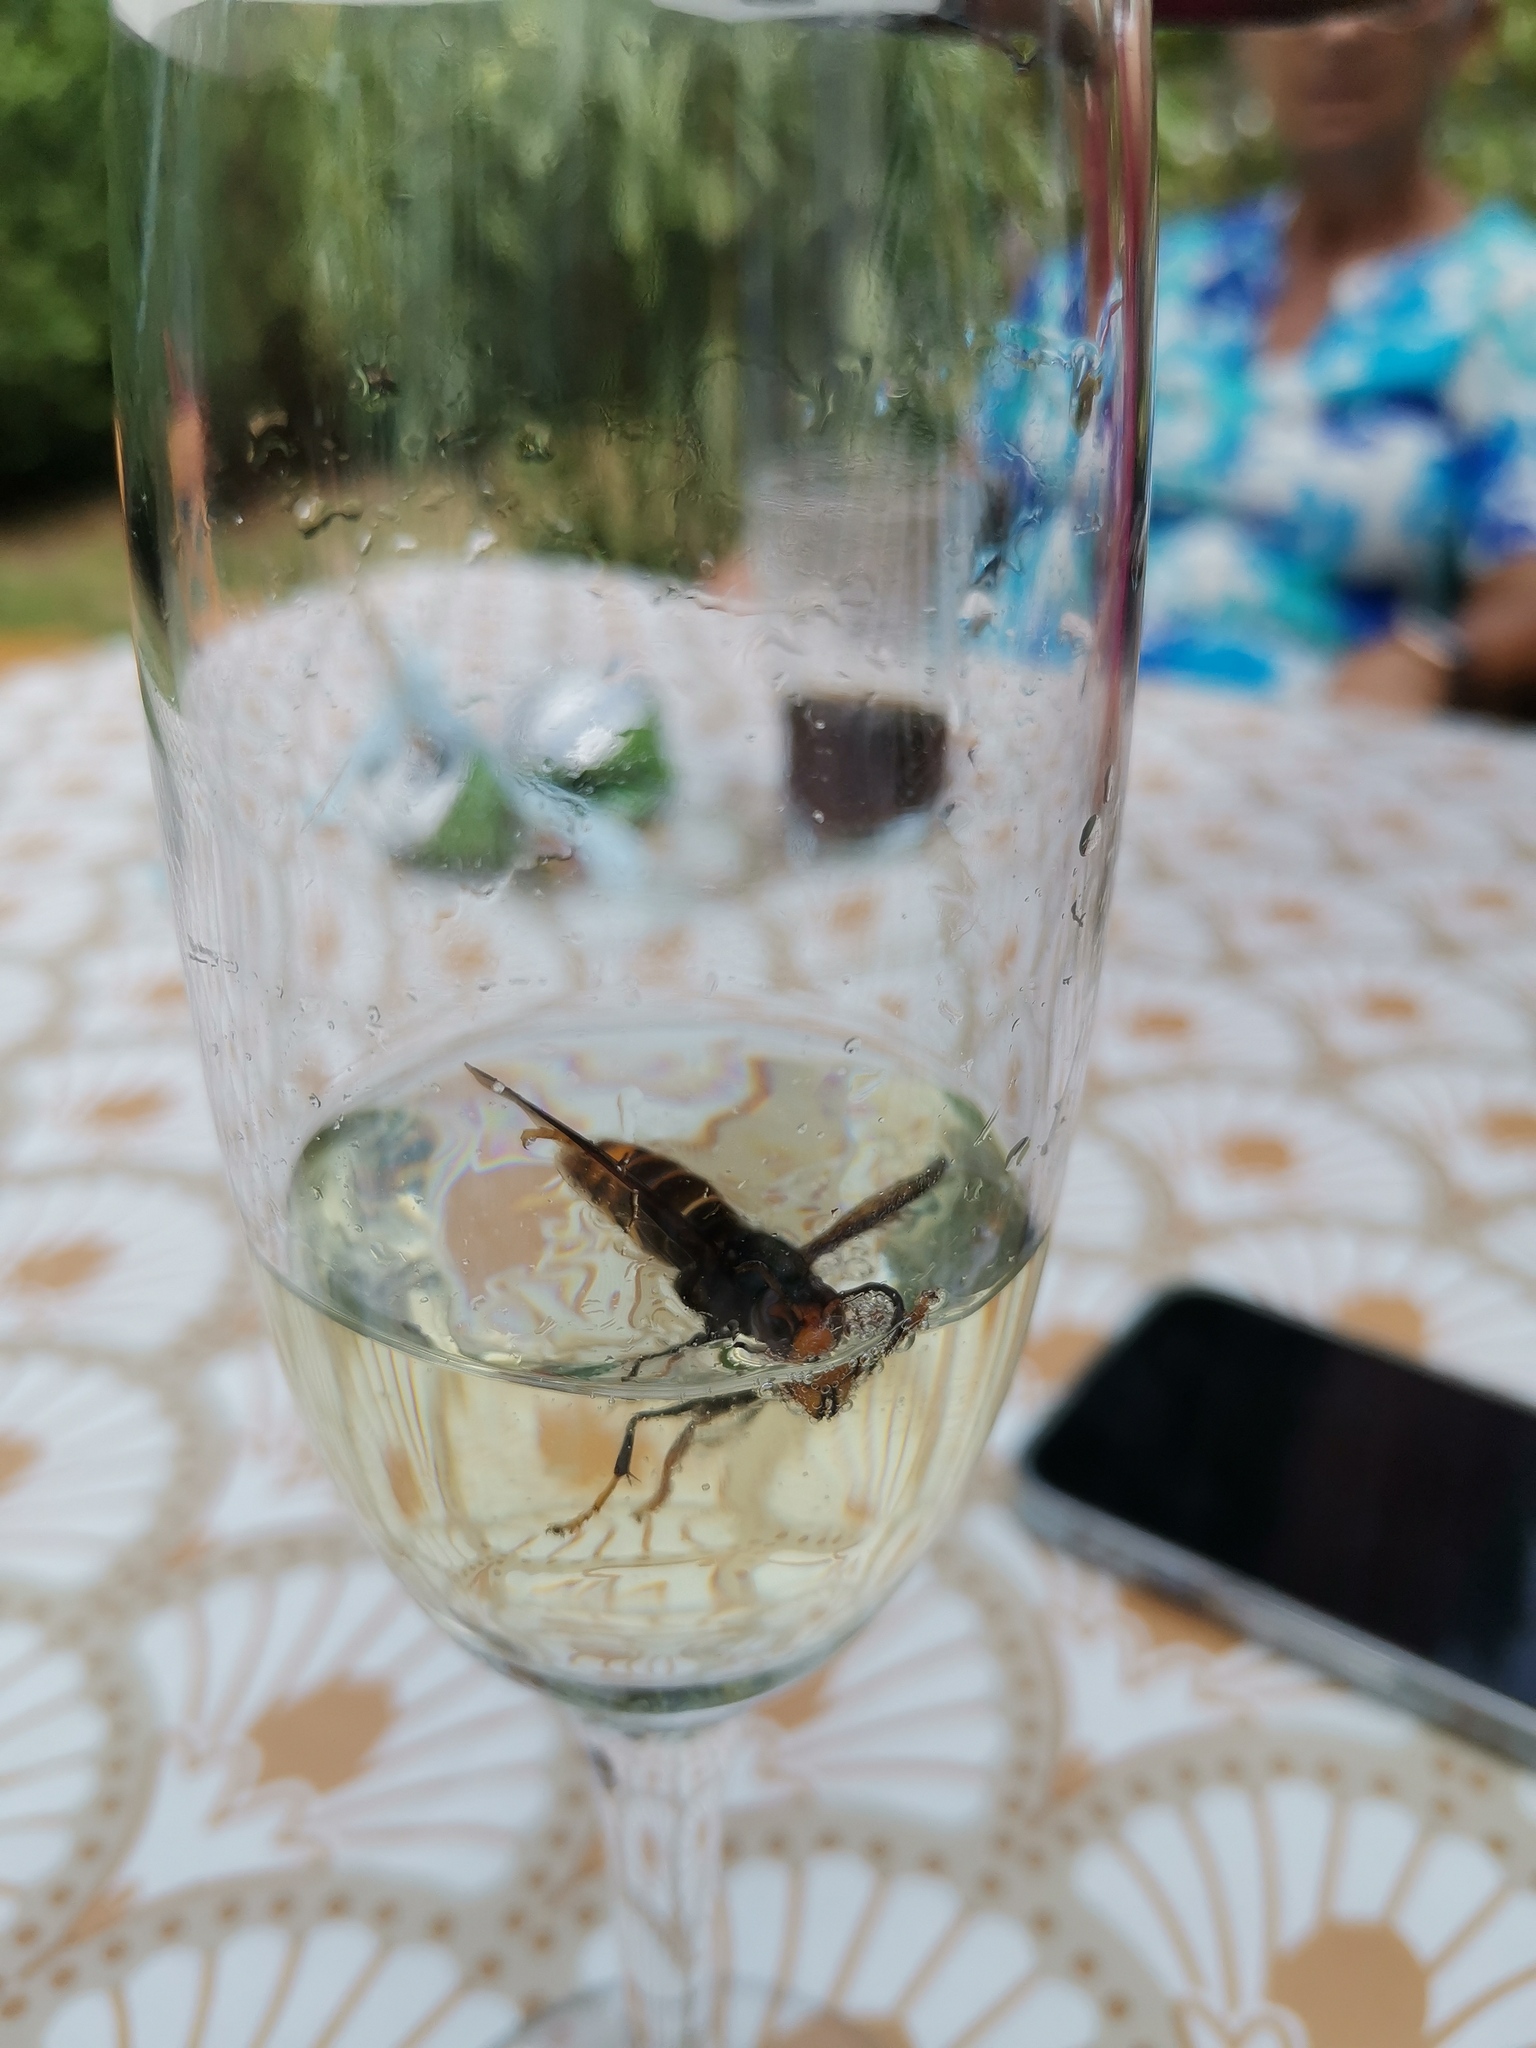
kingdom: Animalia
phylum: Arthropoda
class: Insecta
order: Hymenoptera
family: Vespidae
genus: Vespa
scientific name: Vespa velutina
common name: Asian hornet
